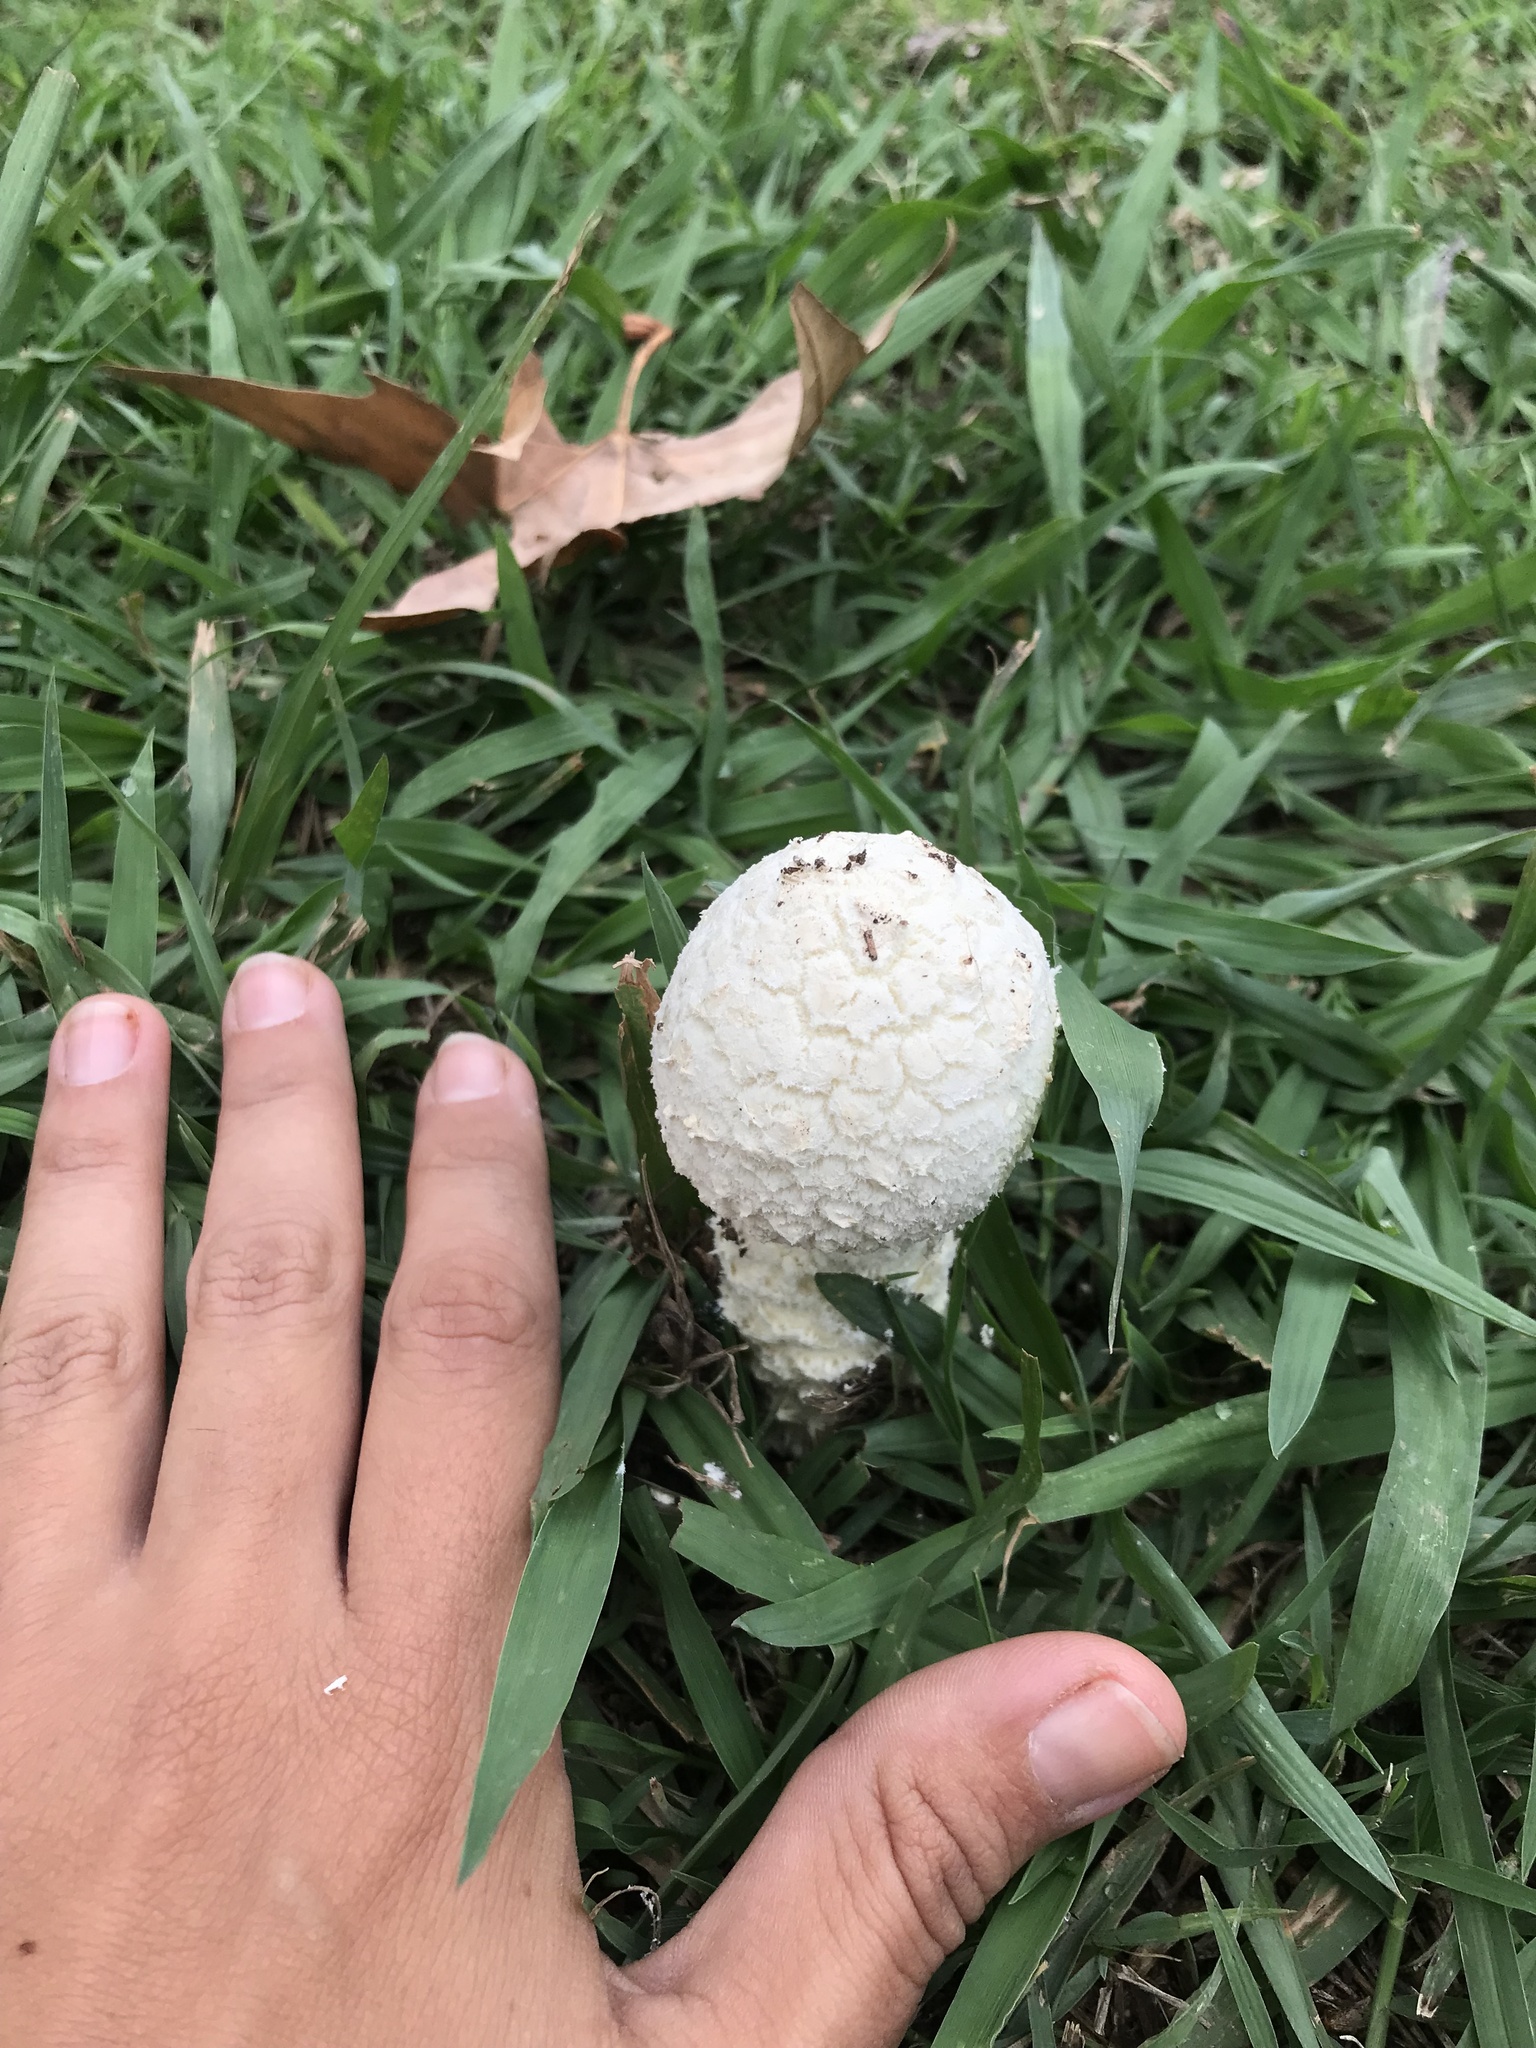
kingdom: Fungi
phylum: Basidiomycota
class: Agaricomycetes
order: Agaricales
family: Amanitaceae
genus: Aspidella
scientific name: Aspidella foetens
